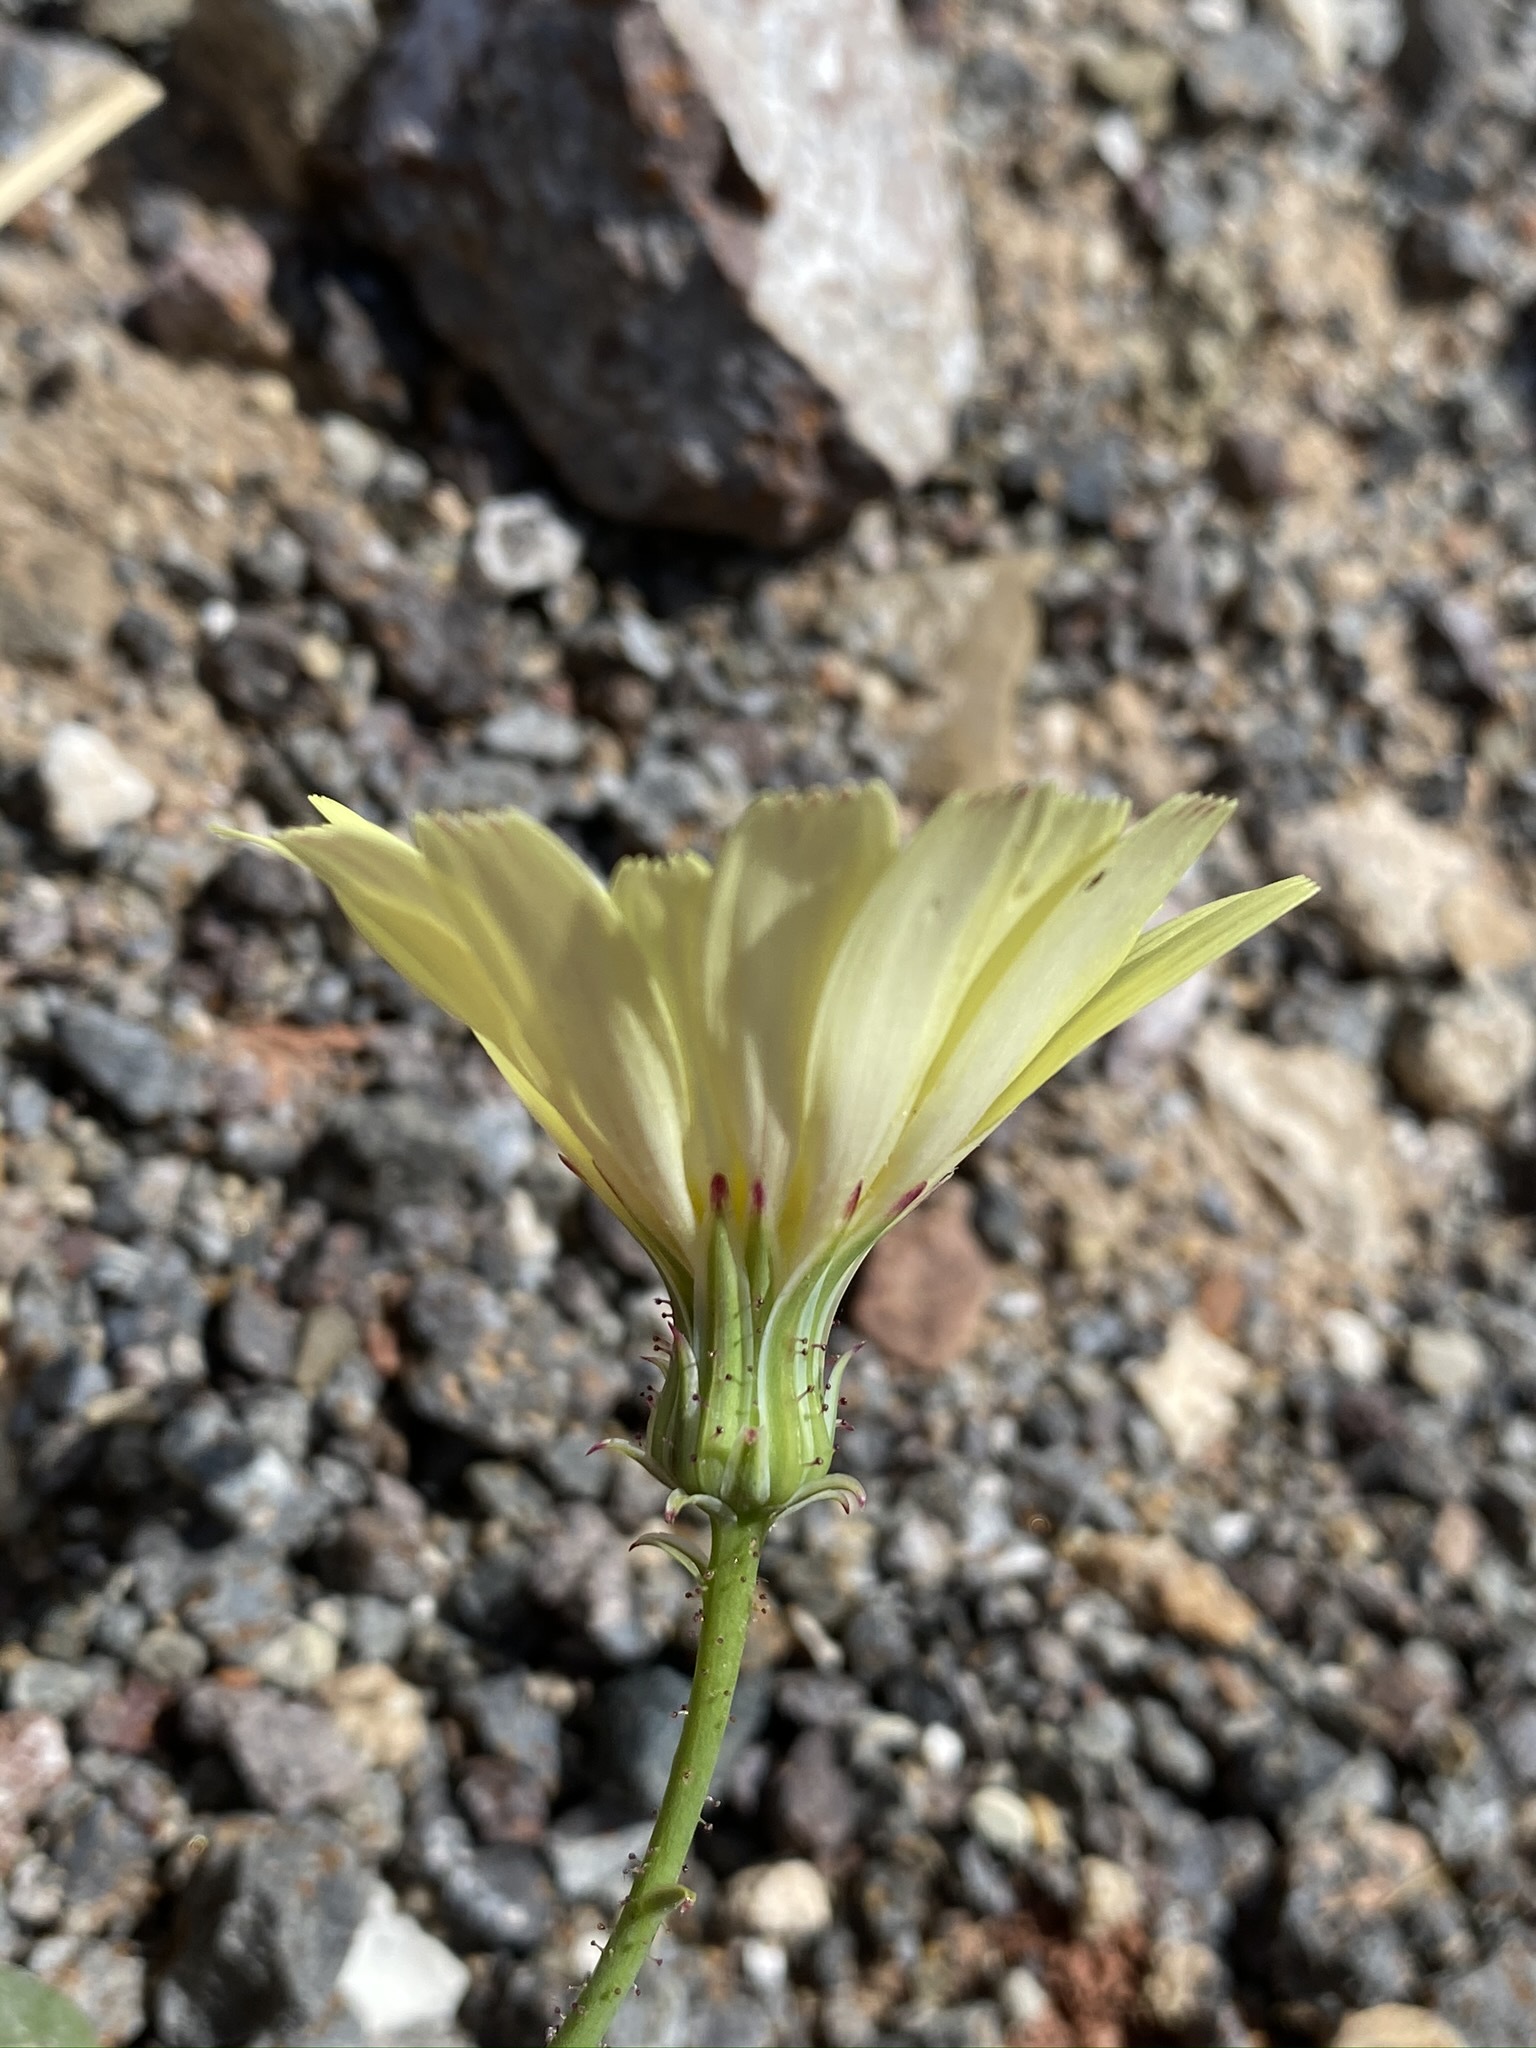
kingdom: Plantae
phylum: Tracheophyta
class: Magnoliopsida
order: Asterales
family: Asteraceae
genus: Calycoseris
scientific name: Calycoseris parryi
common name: Yellow tackstem
